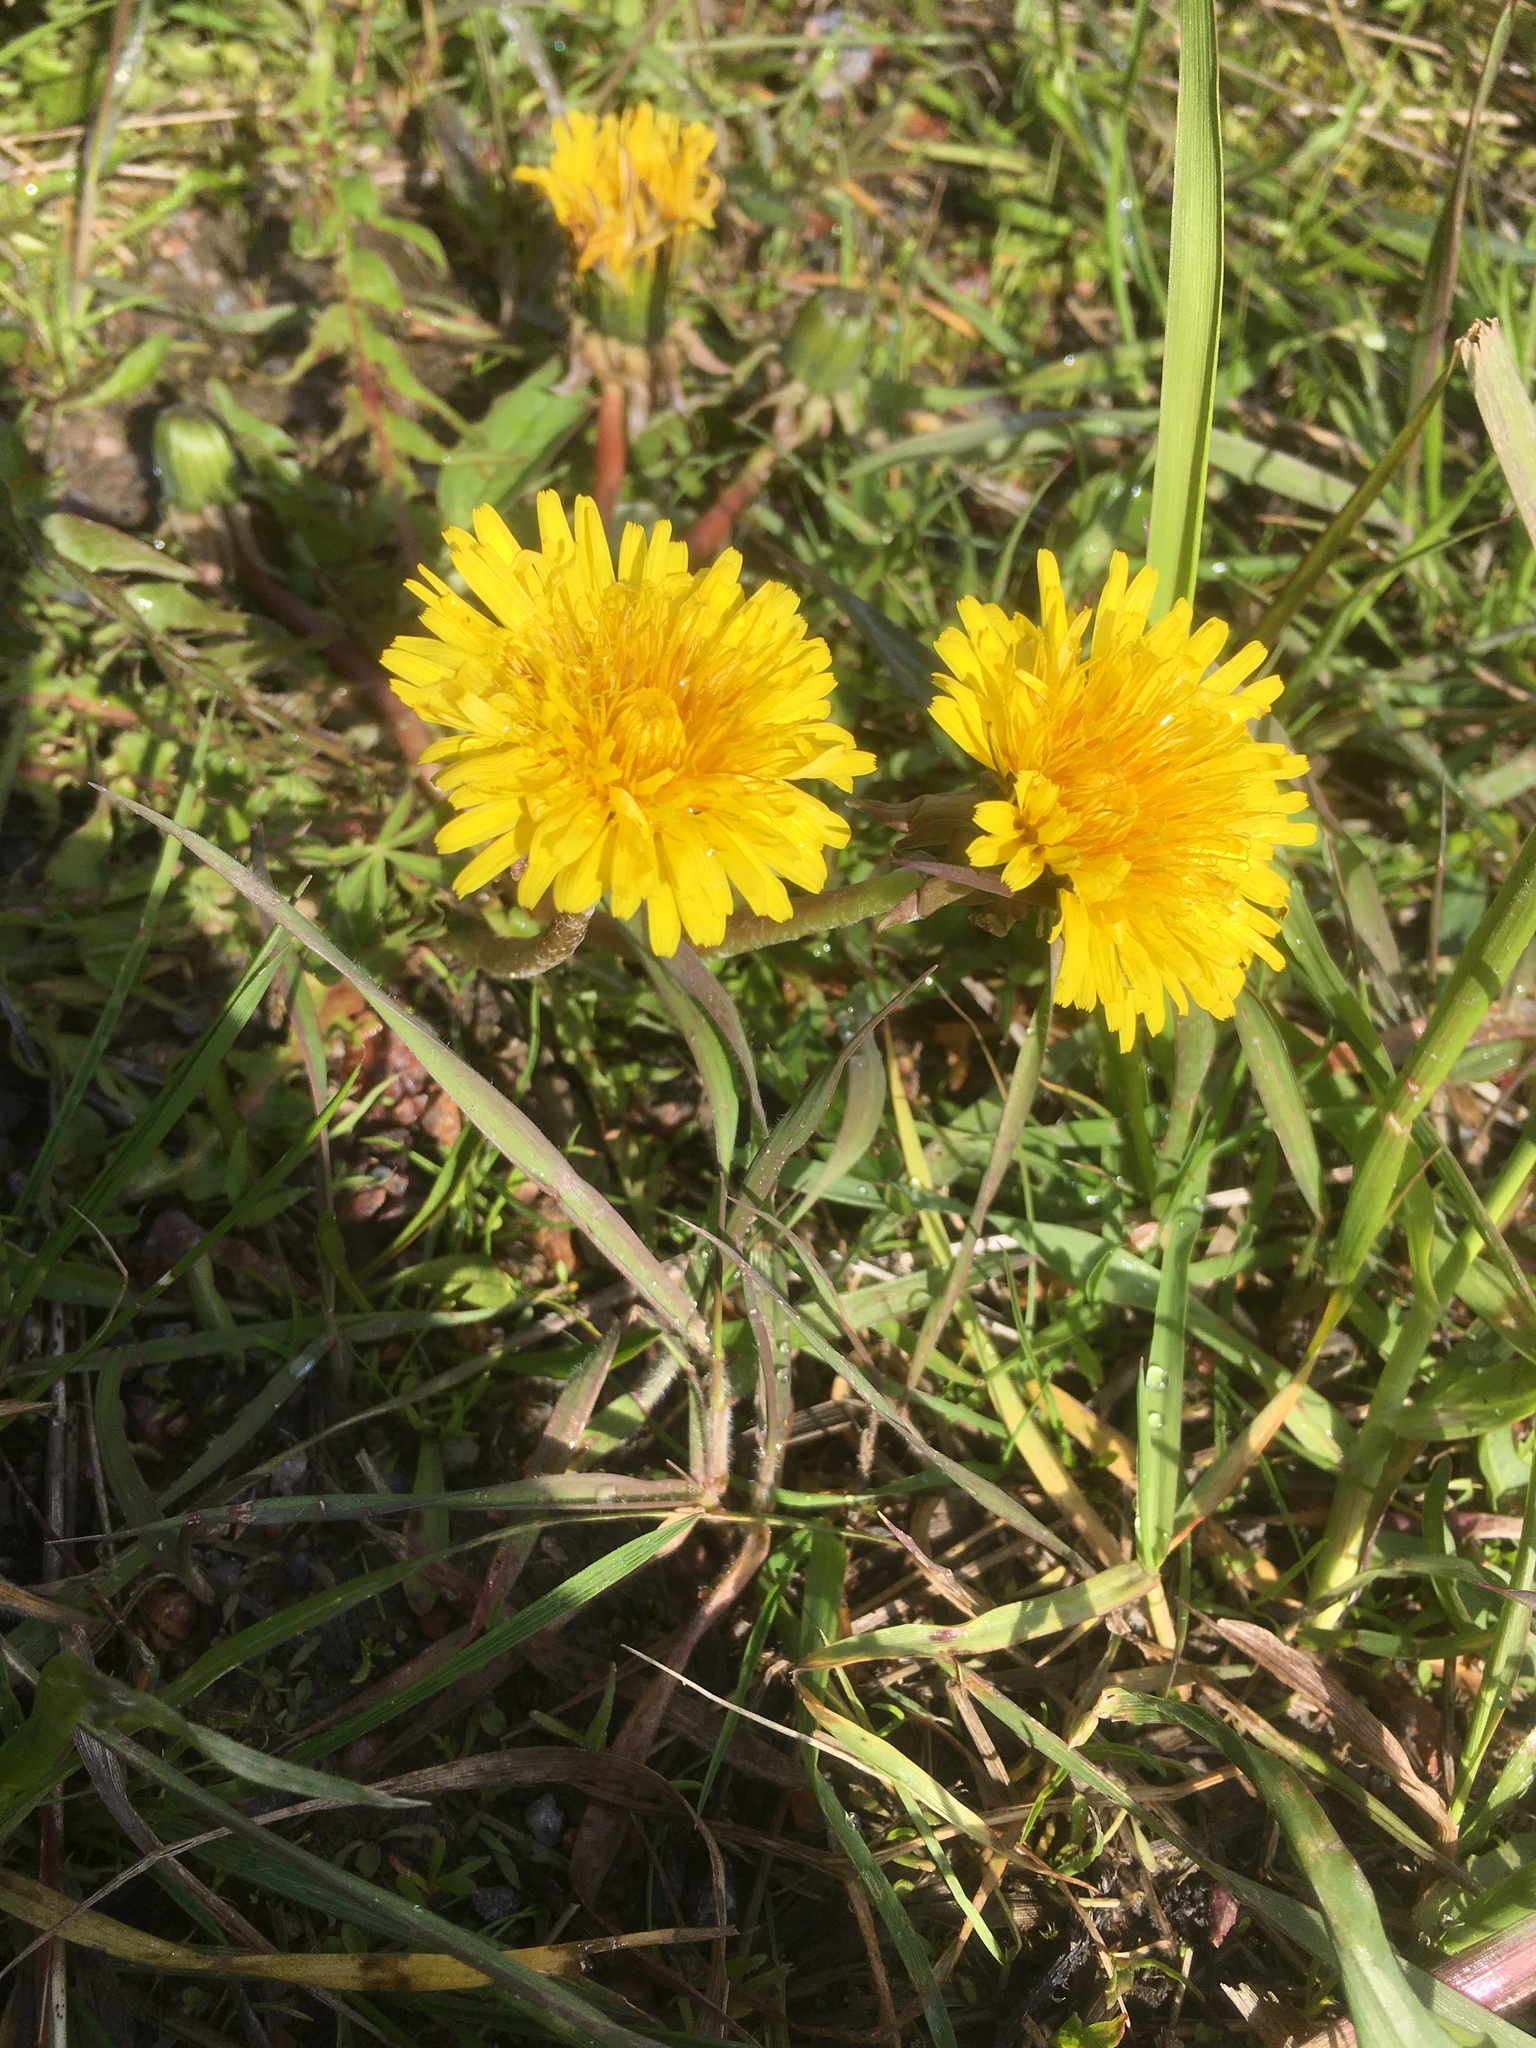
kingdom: Plantae
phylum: Tracheophyta
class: Magnoliopsida
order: Asterales
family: Asteraceae
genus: Taraxacum
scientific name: Taraxacum
